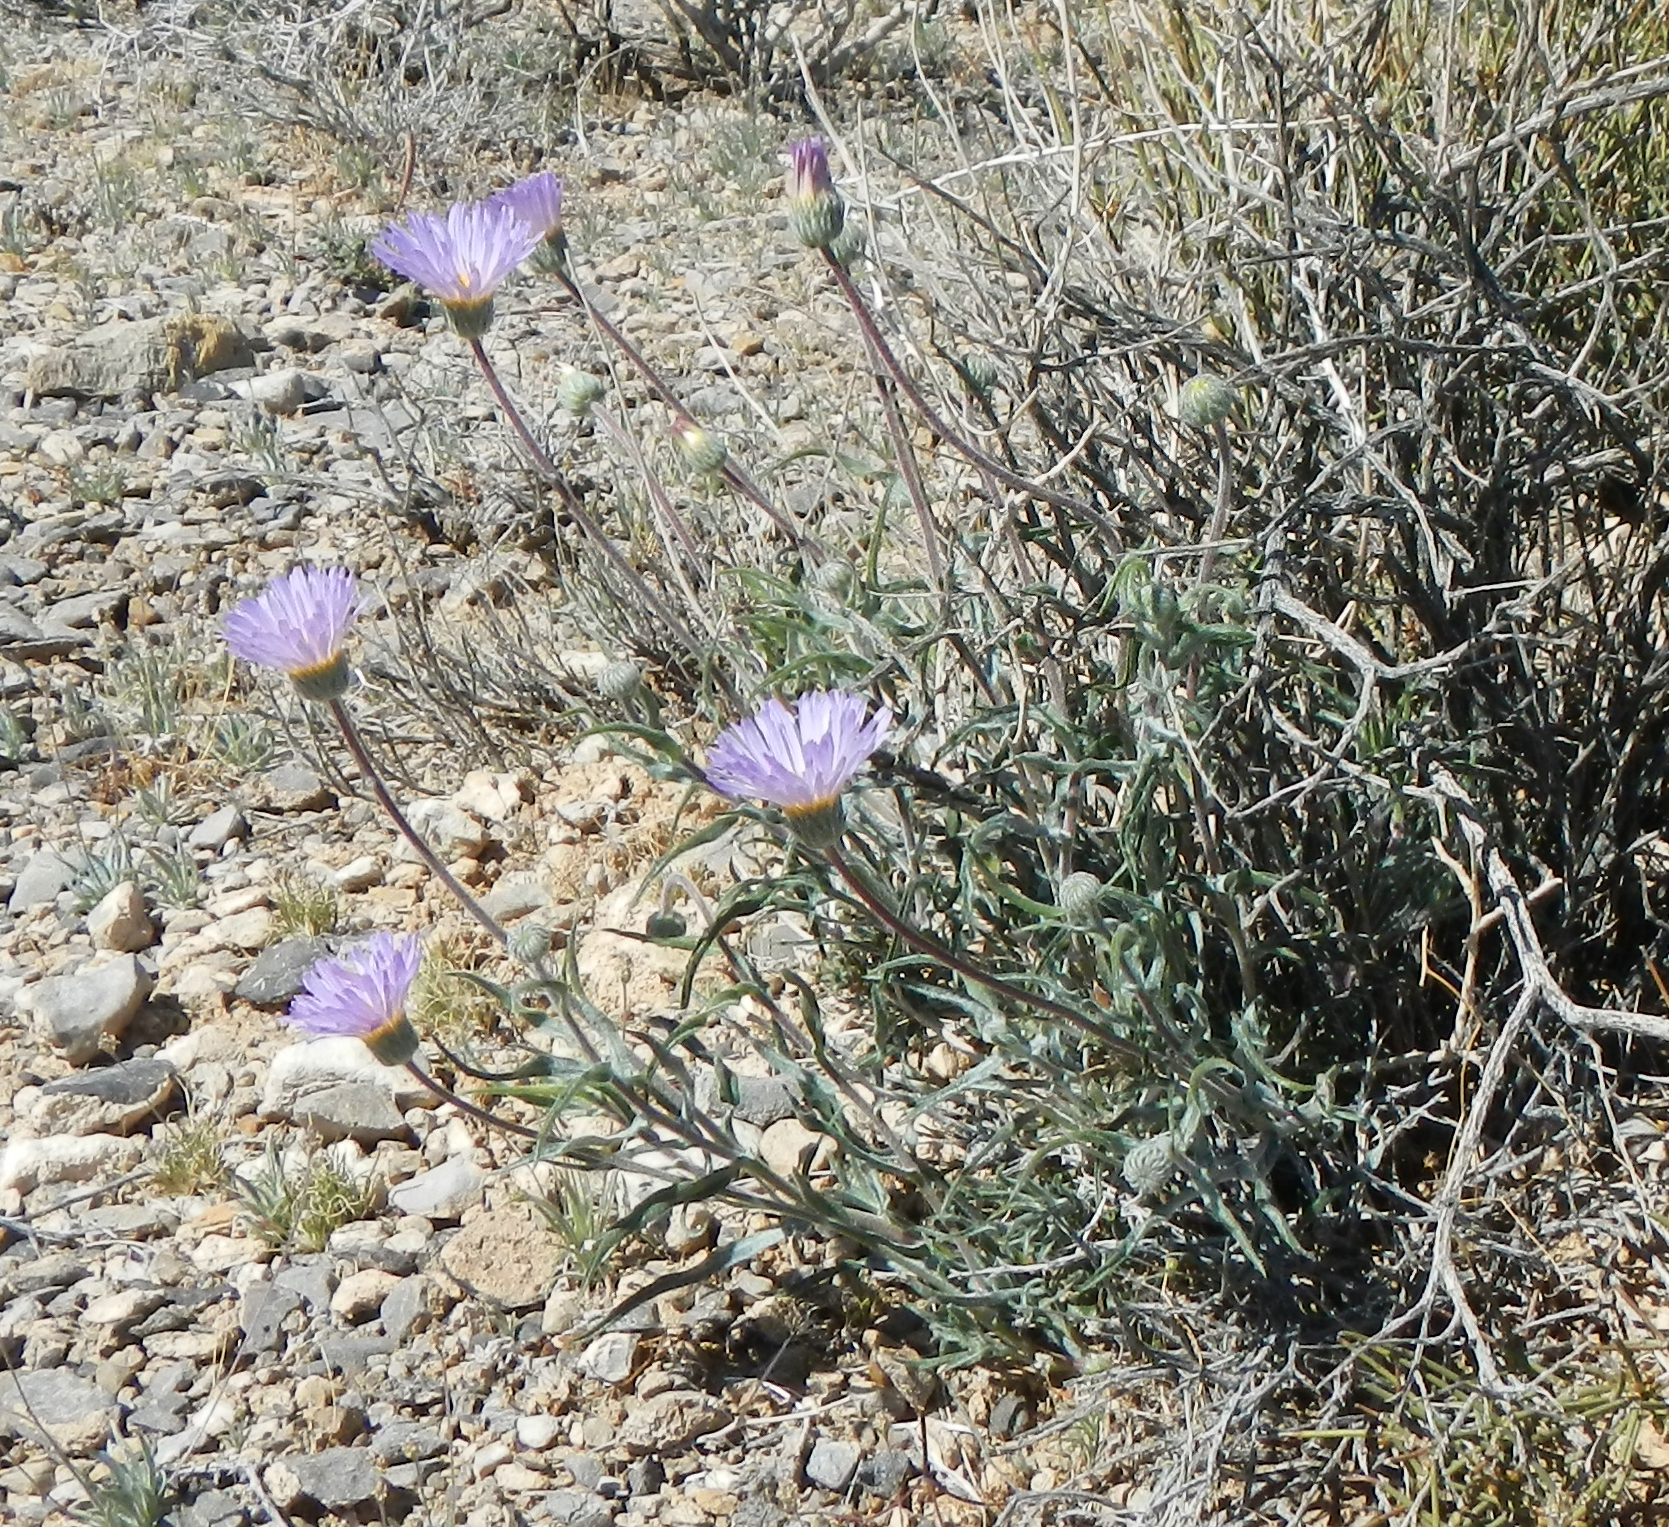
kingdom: Plantae
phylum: Tracheophyta
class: Magnoliopsida
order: Asterales
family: Asteraceae
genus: Xylorhiza
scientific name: Xylorhiza tortifolia
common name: Hurt-leaf woody-aster
